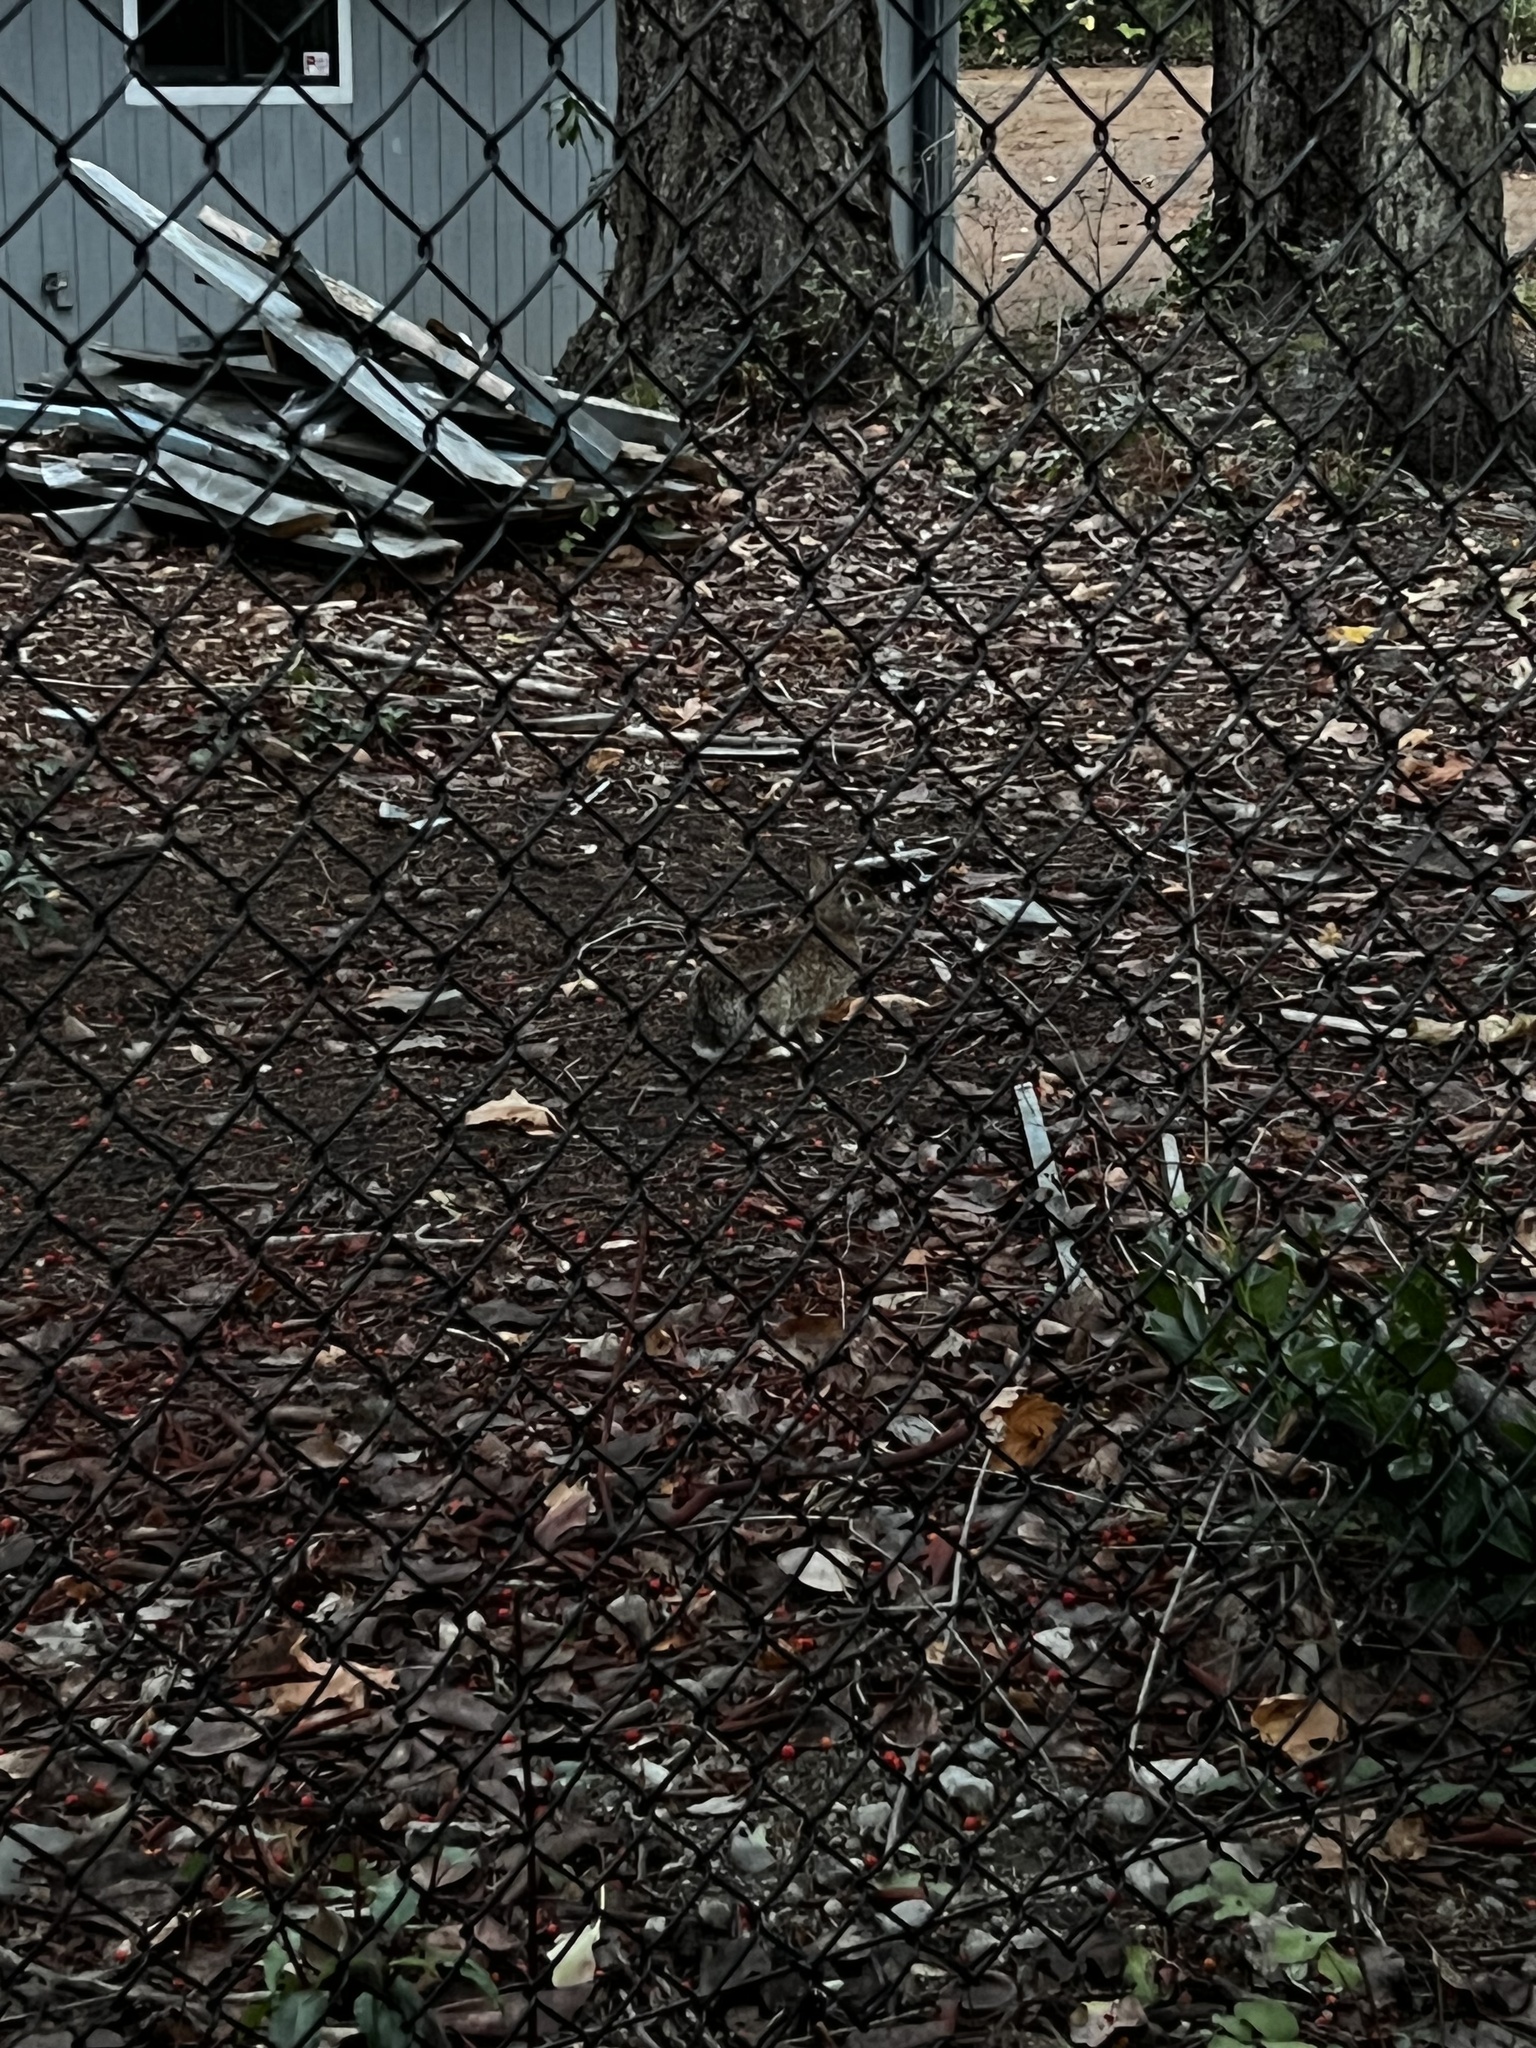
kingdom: Animalia
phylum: Chordata
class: Mammalia
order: Lagomorpha
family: Leporidae
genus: Sylvilagus
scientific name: Sylvilagus floridanus
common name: Eastern cottontail
